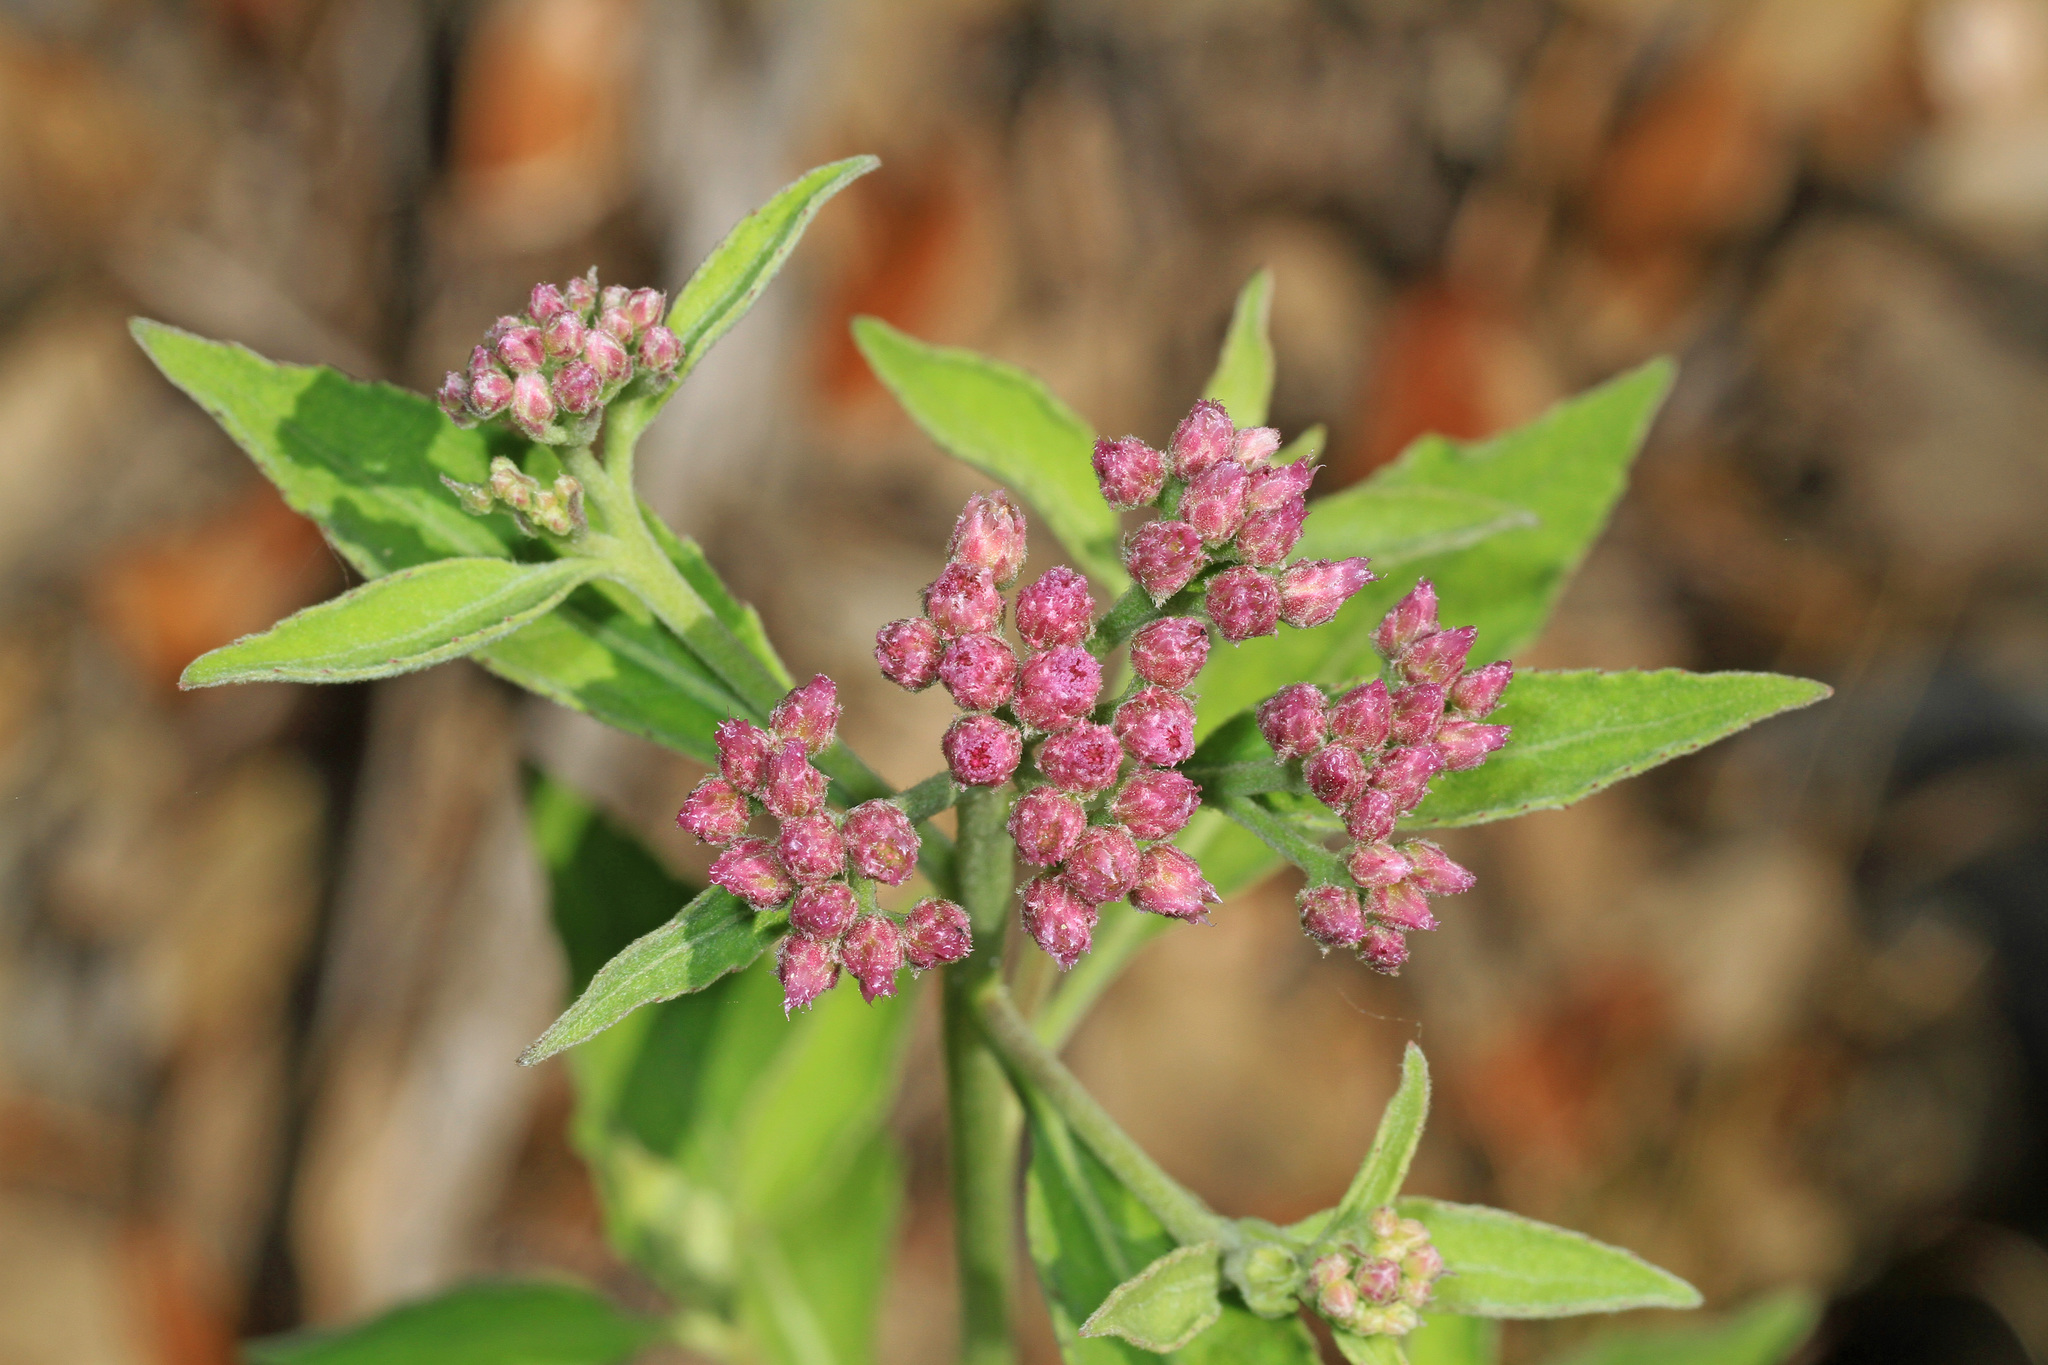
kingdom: Plantae
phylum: Tracheophyta
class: Magnoliopsida
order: Asterales
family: Asteraceae
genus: Pluchea
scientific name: Pluchea odorata
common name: Saltmarsh fleabane
